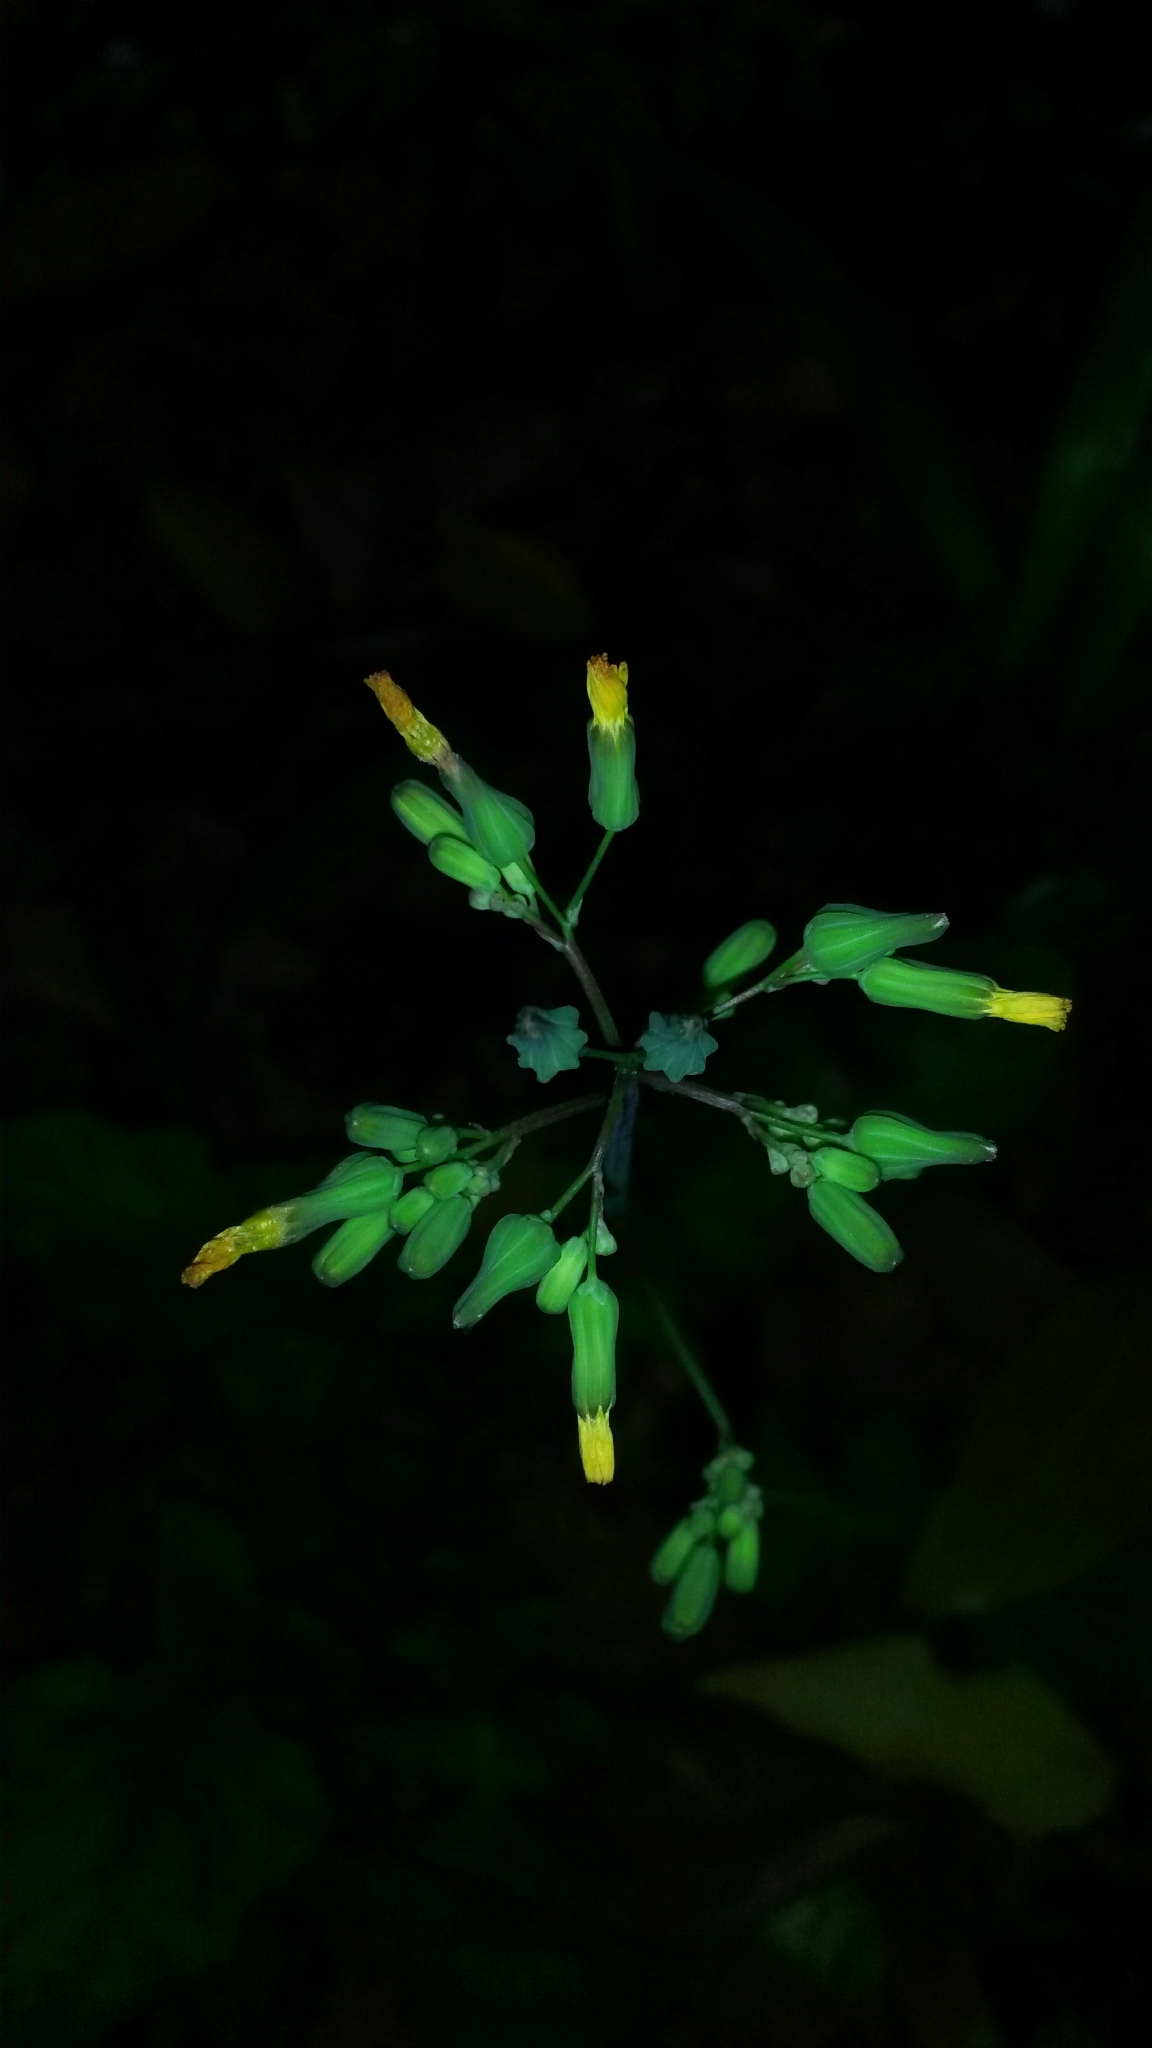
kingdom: Plantae
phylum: Tracheophyta
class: Magnoliopsida
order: Asterales
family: Asteraceae
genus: Youngia
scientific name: Youngia japonica
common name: Oriental false hawksbeard
